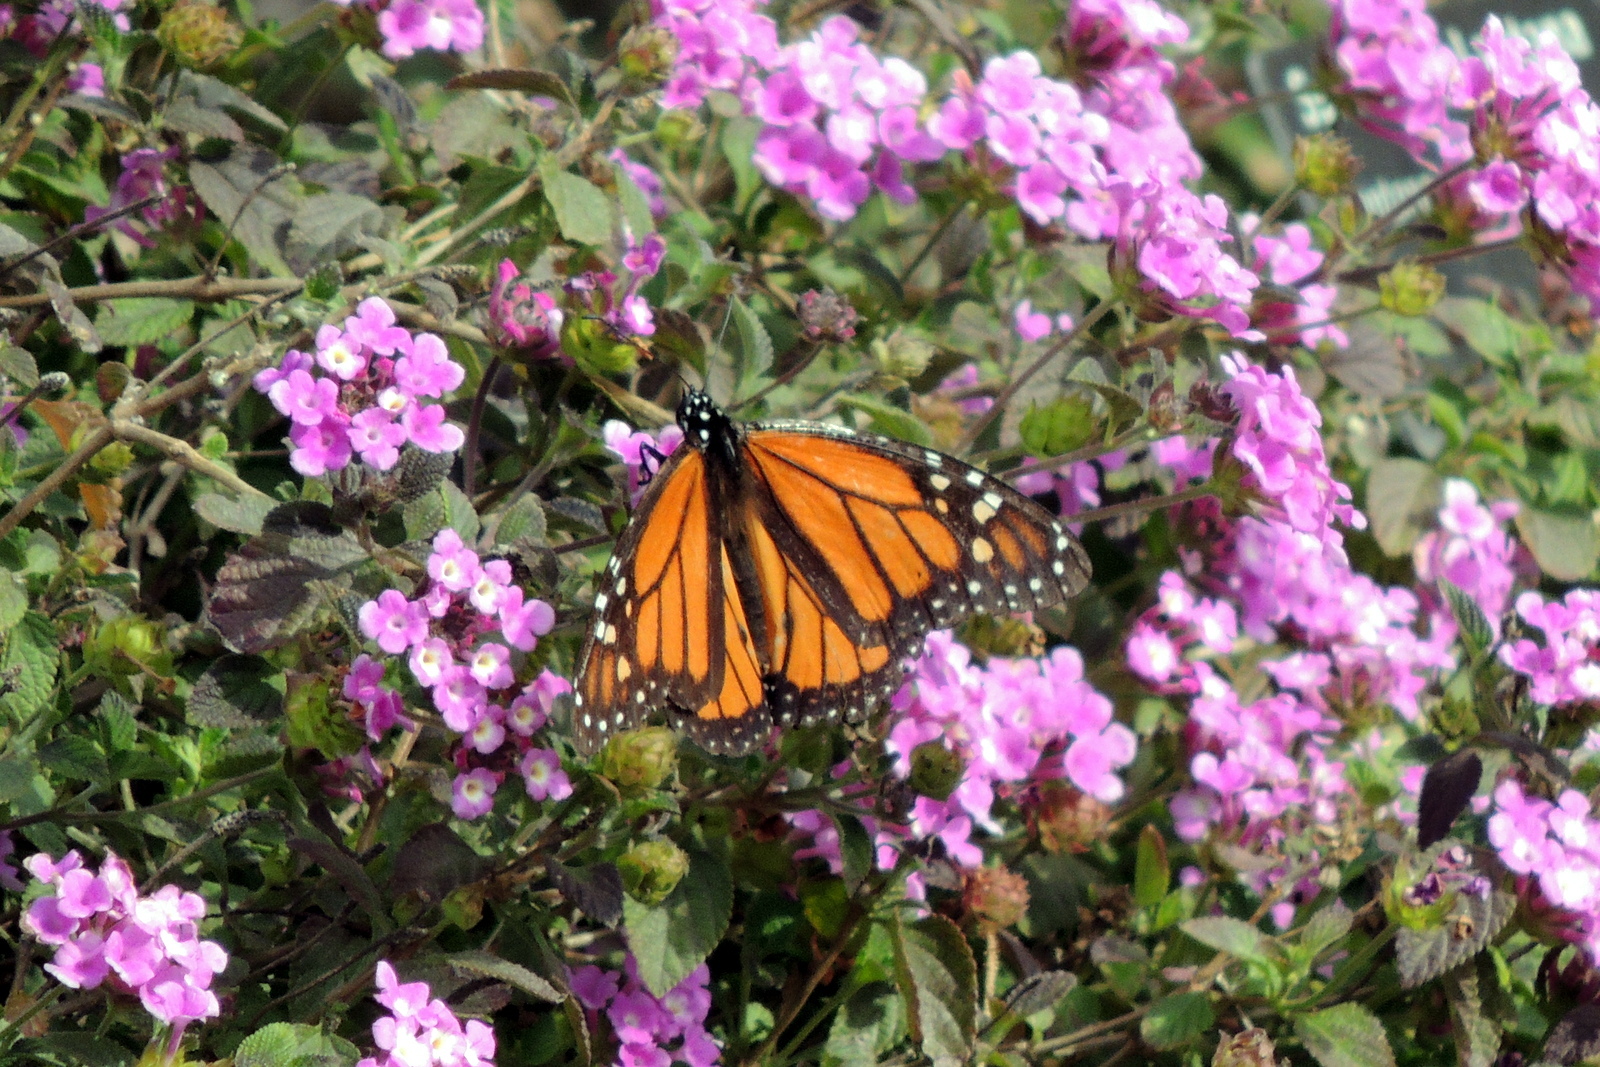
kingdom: Animalia
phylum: Arthropoda
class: Insecta
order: Lepidoptera
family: Nymphalidae
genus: Danaus
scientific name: Danaus plexippus
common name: Monarch
